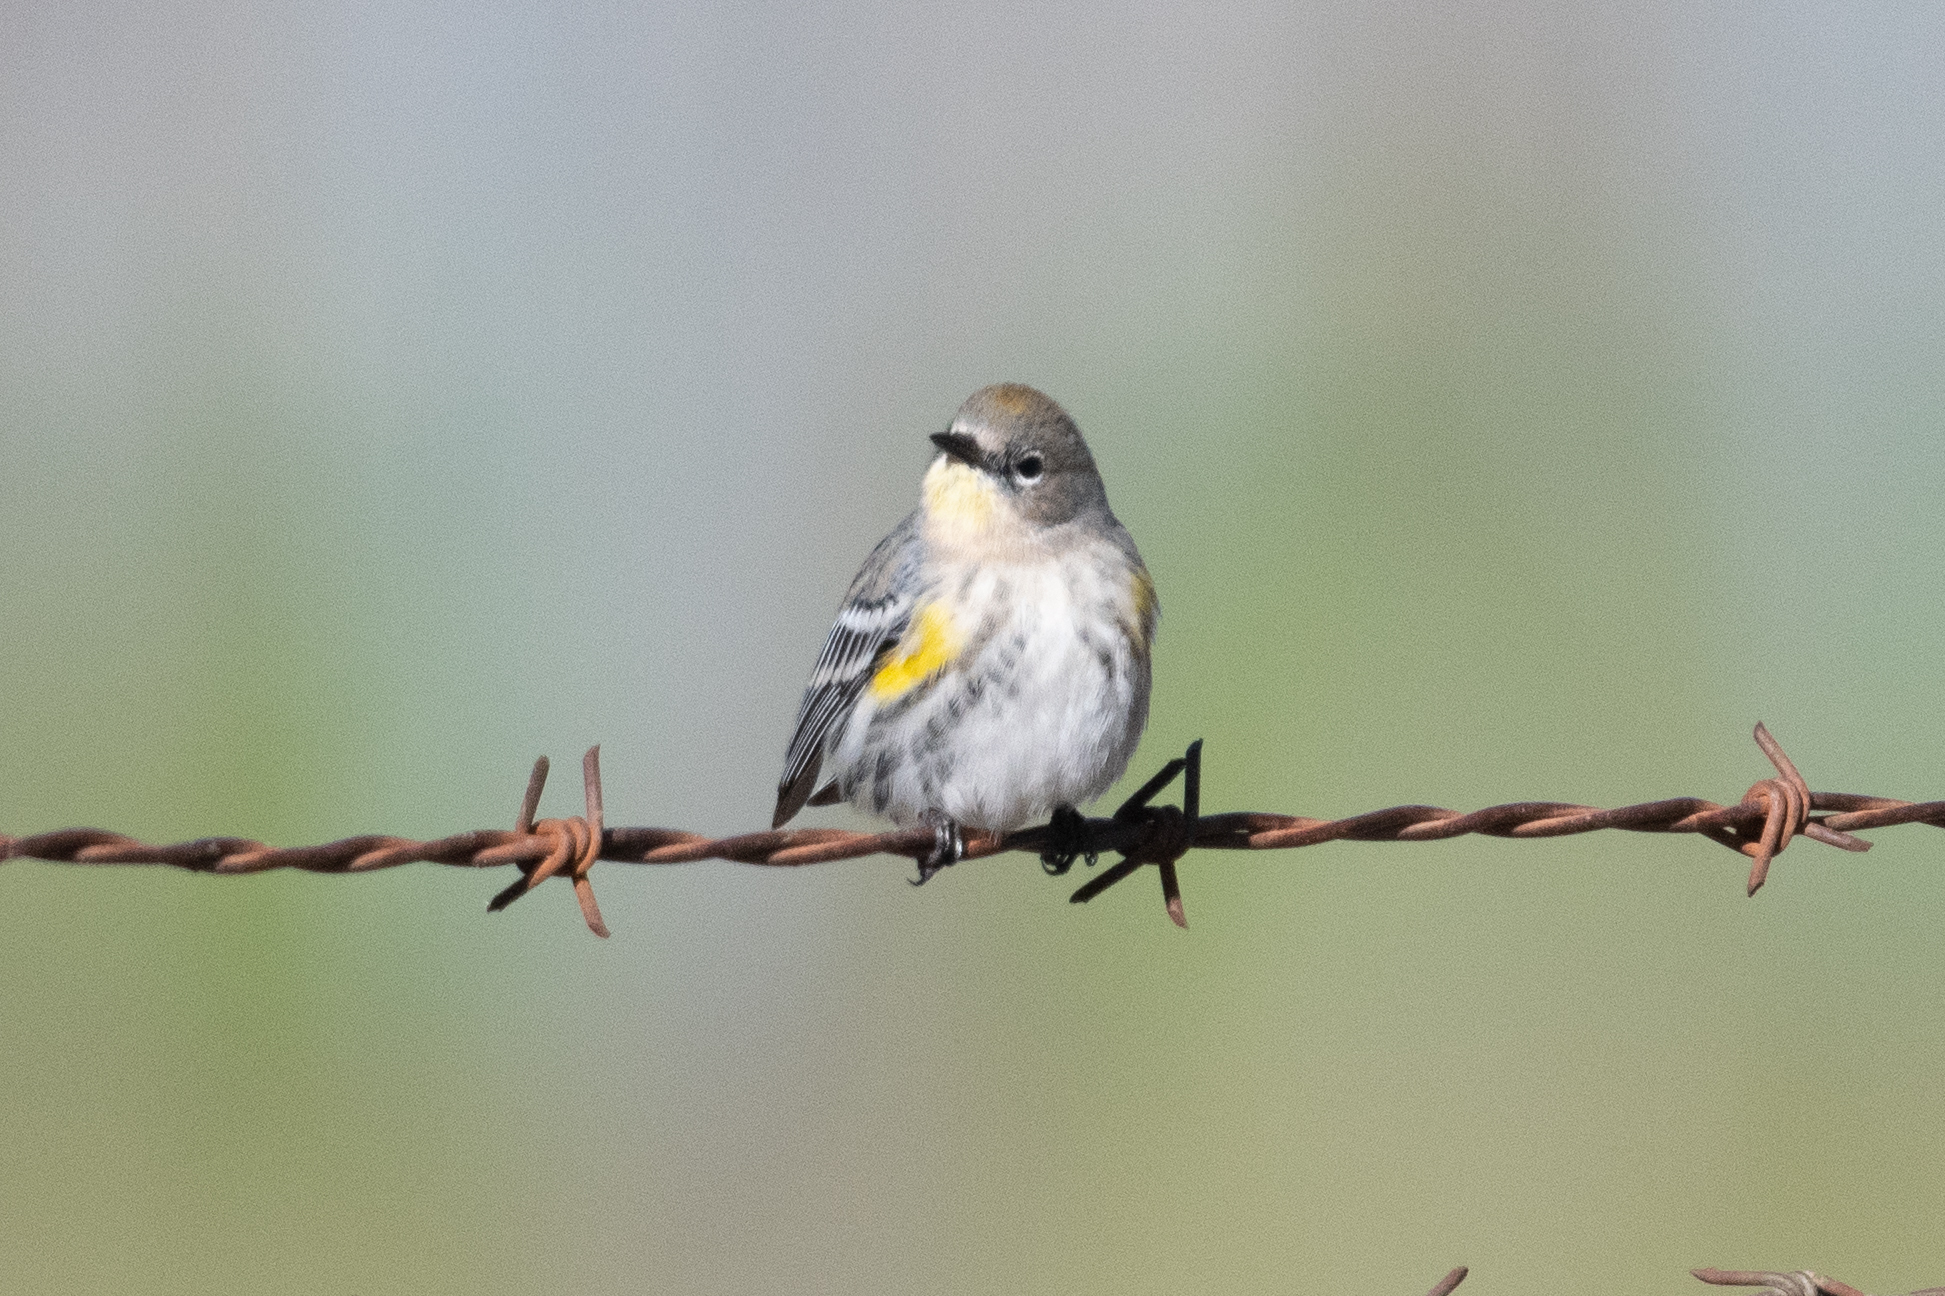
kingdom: Animalia
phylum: Chordata
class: Aves
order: Passeriformes
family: Parulidae
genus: Setophaga
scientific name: Setophaga coronata
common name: Myrtle warbler
